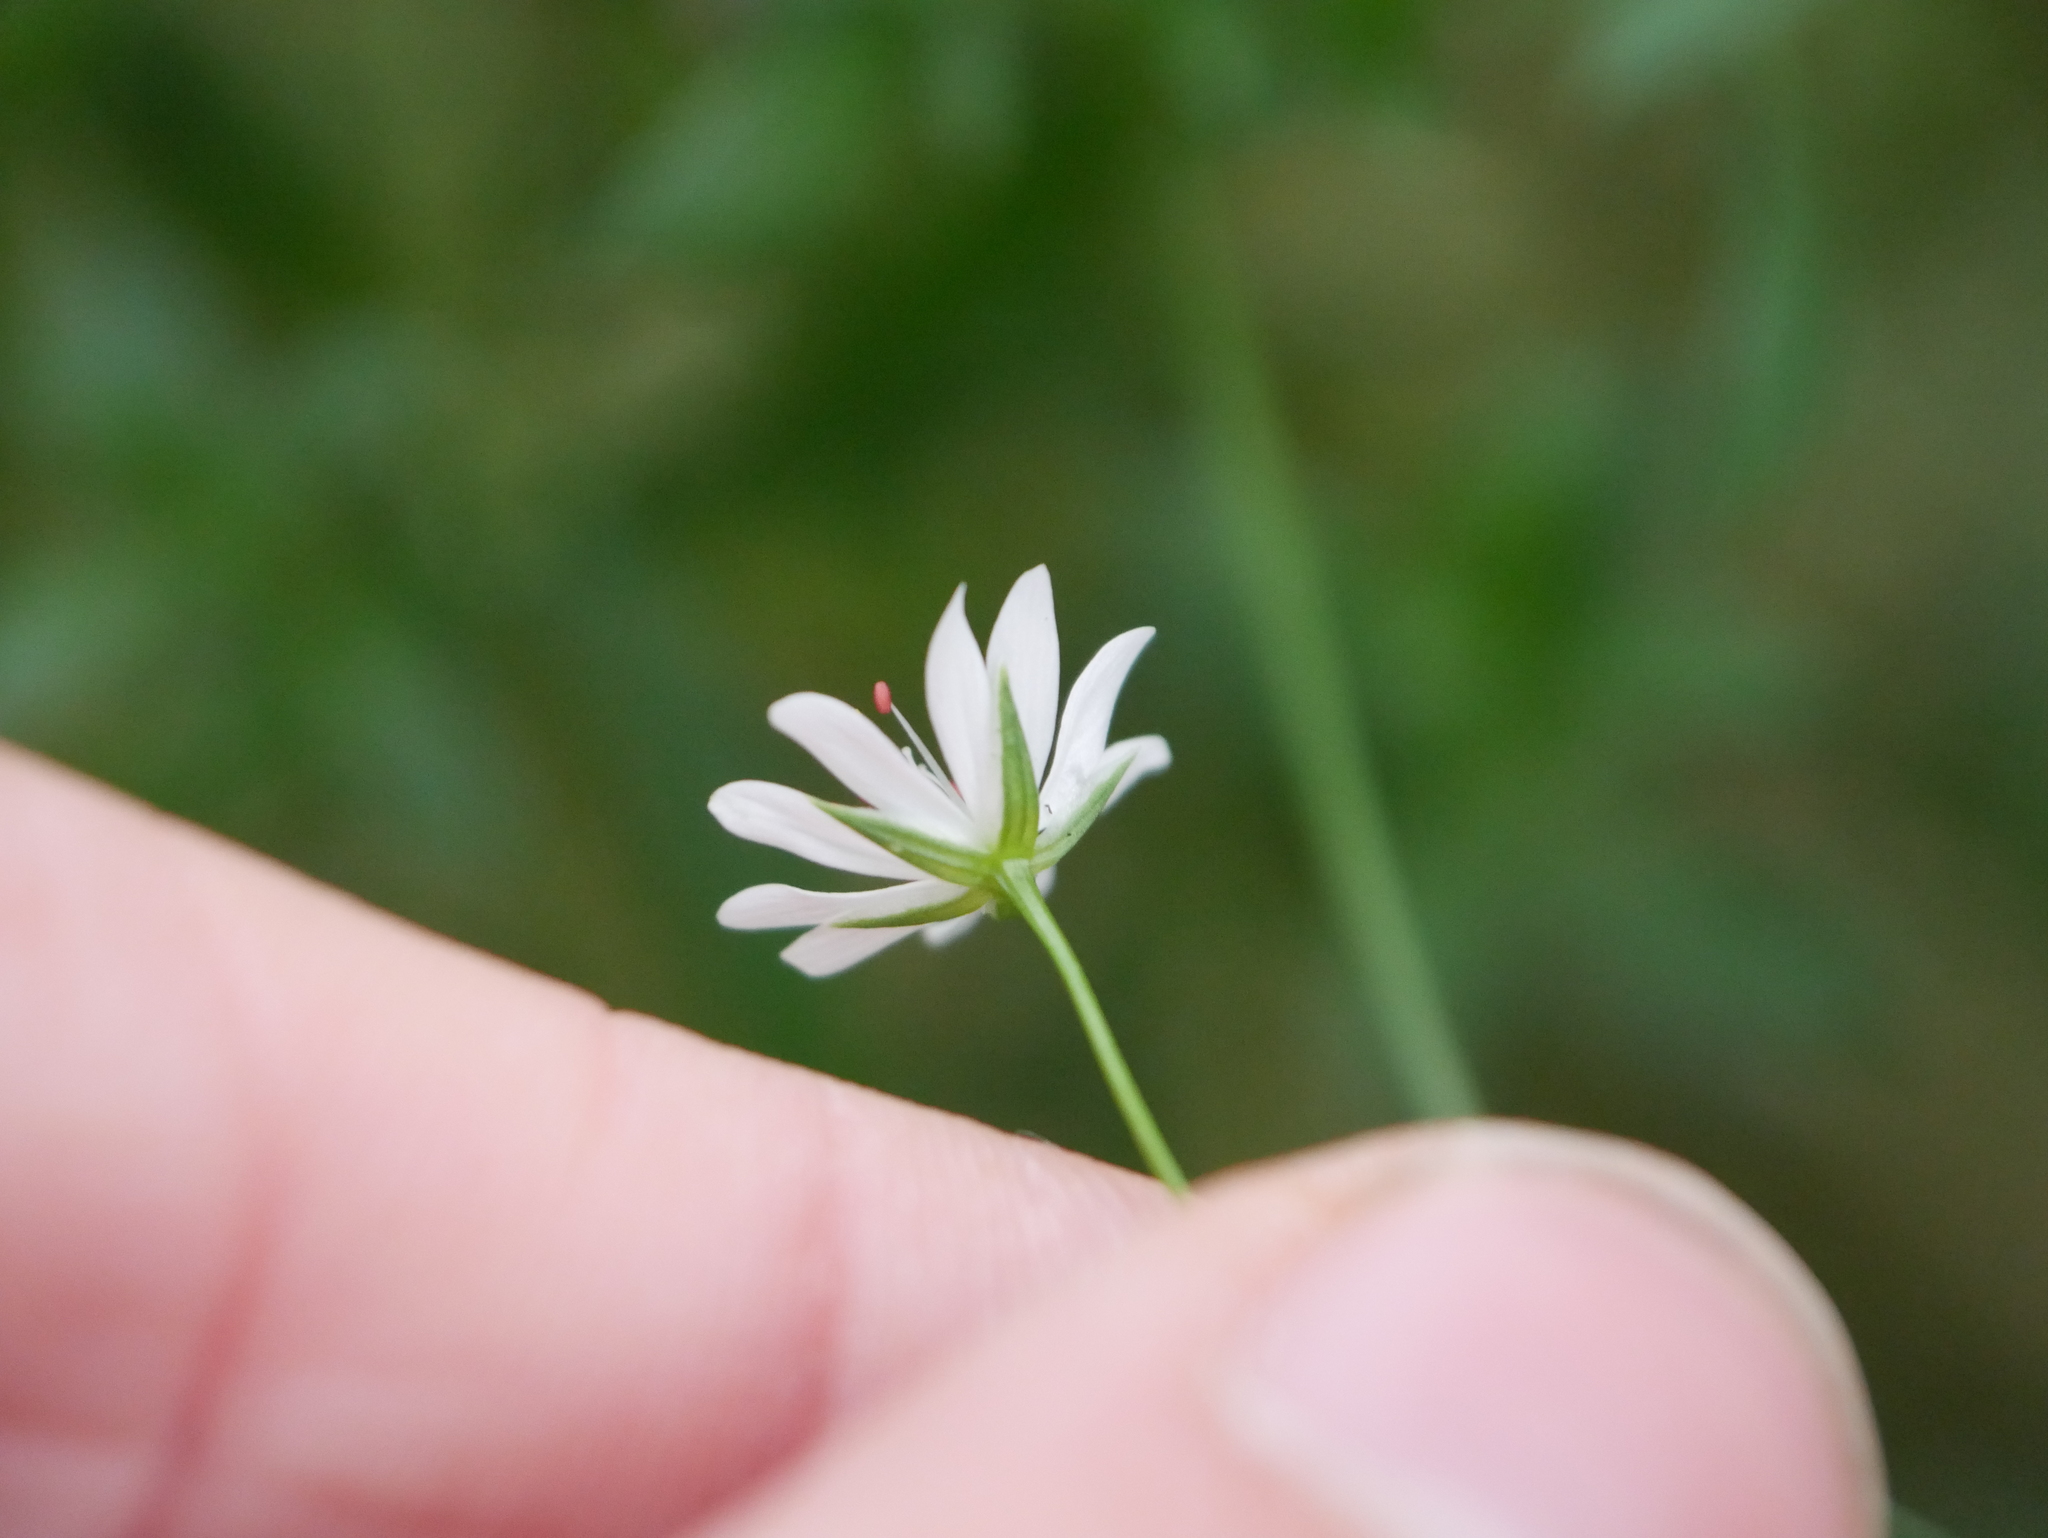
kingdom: Plantae
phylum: Tracheophyta
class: Magnoliopsida
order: Caryophyllales
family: Caryophyllaceae
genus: Stellaria
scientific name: Stellaria graminea
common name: Grass-like starwort
